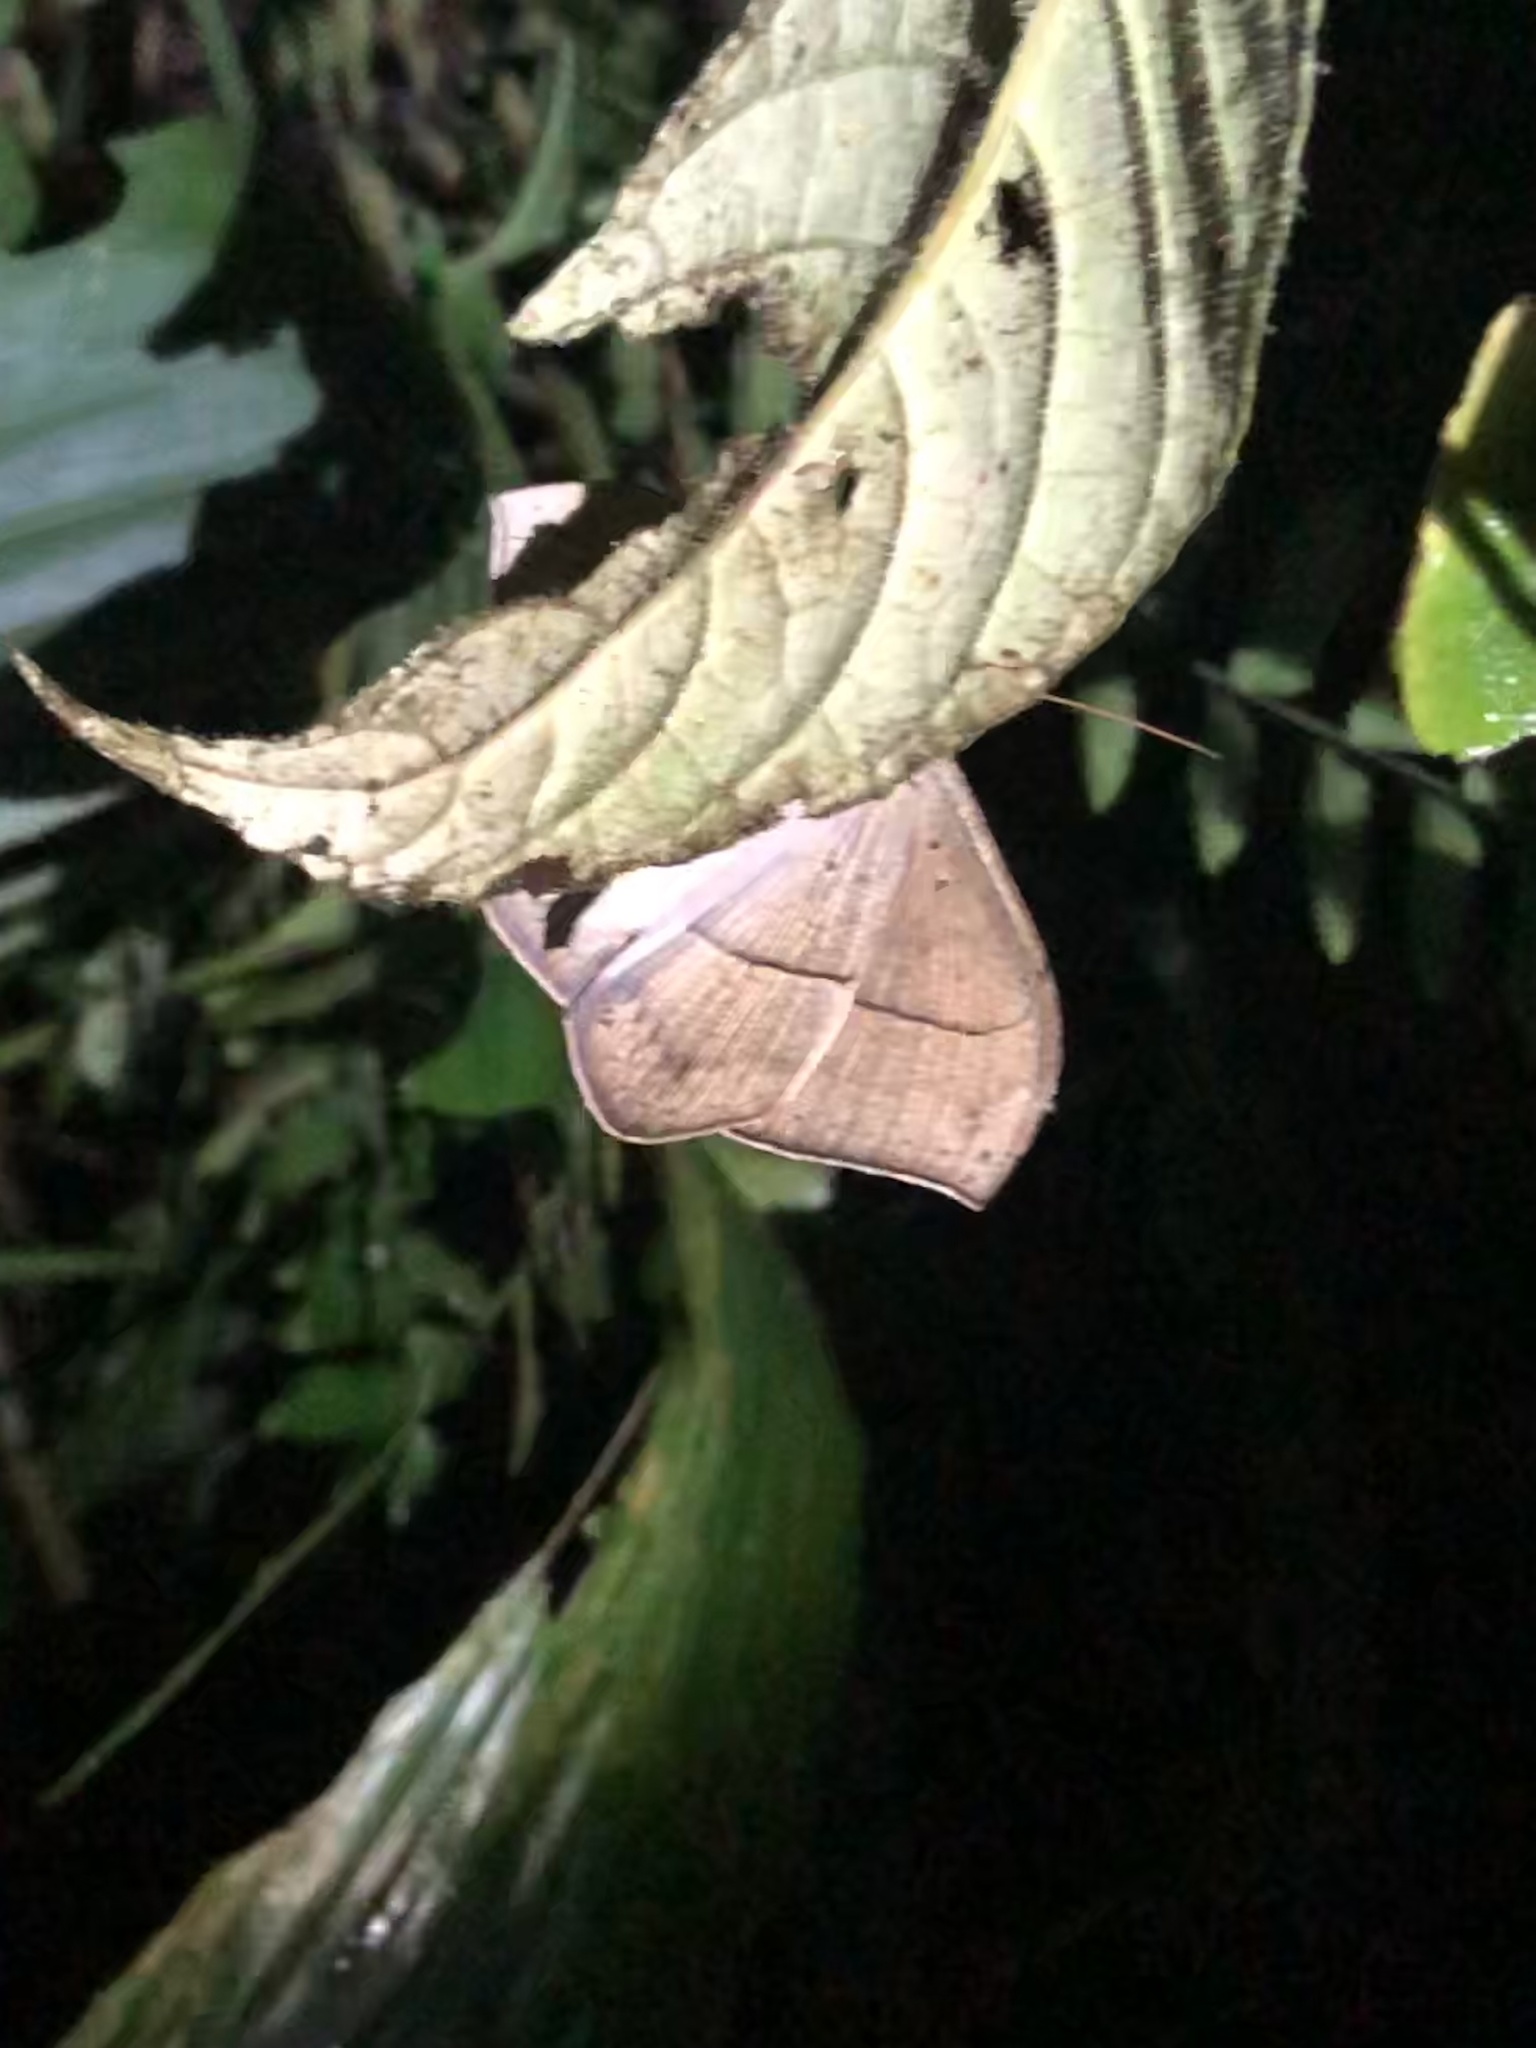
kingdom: Animalia
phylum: Arthropoda
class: Insecta
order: Lepidoptera
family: Erebidae
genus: Hemeroblemma
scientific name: Hemeroblemma opigena
